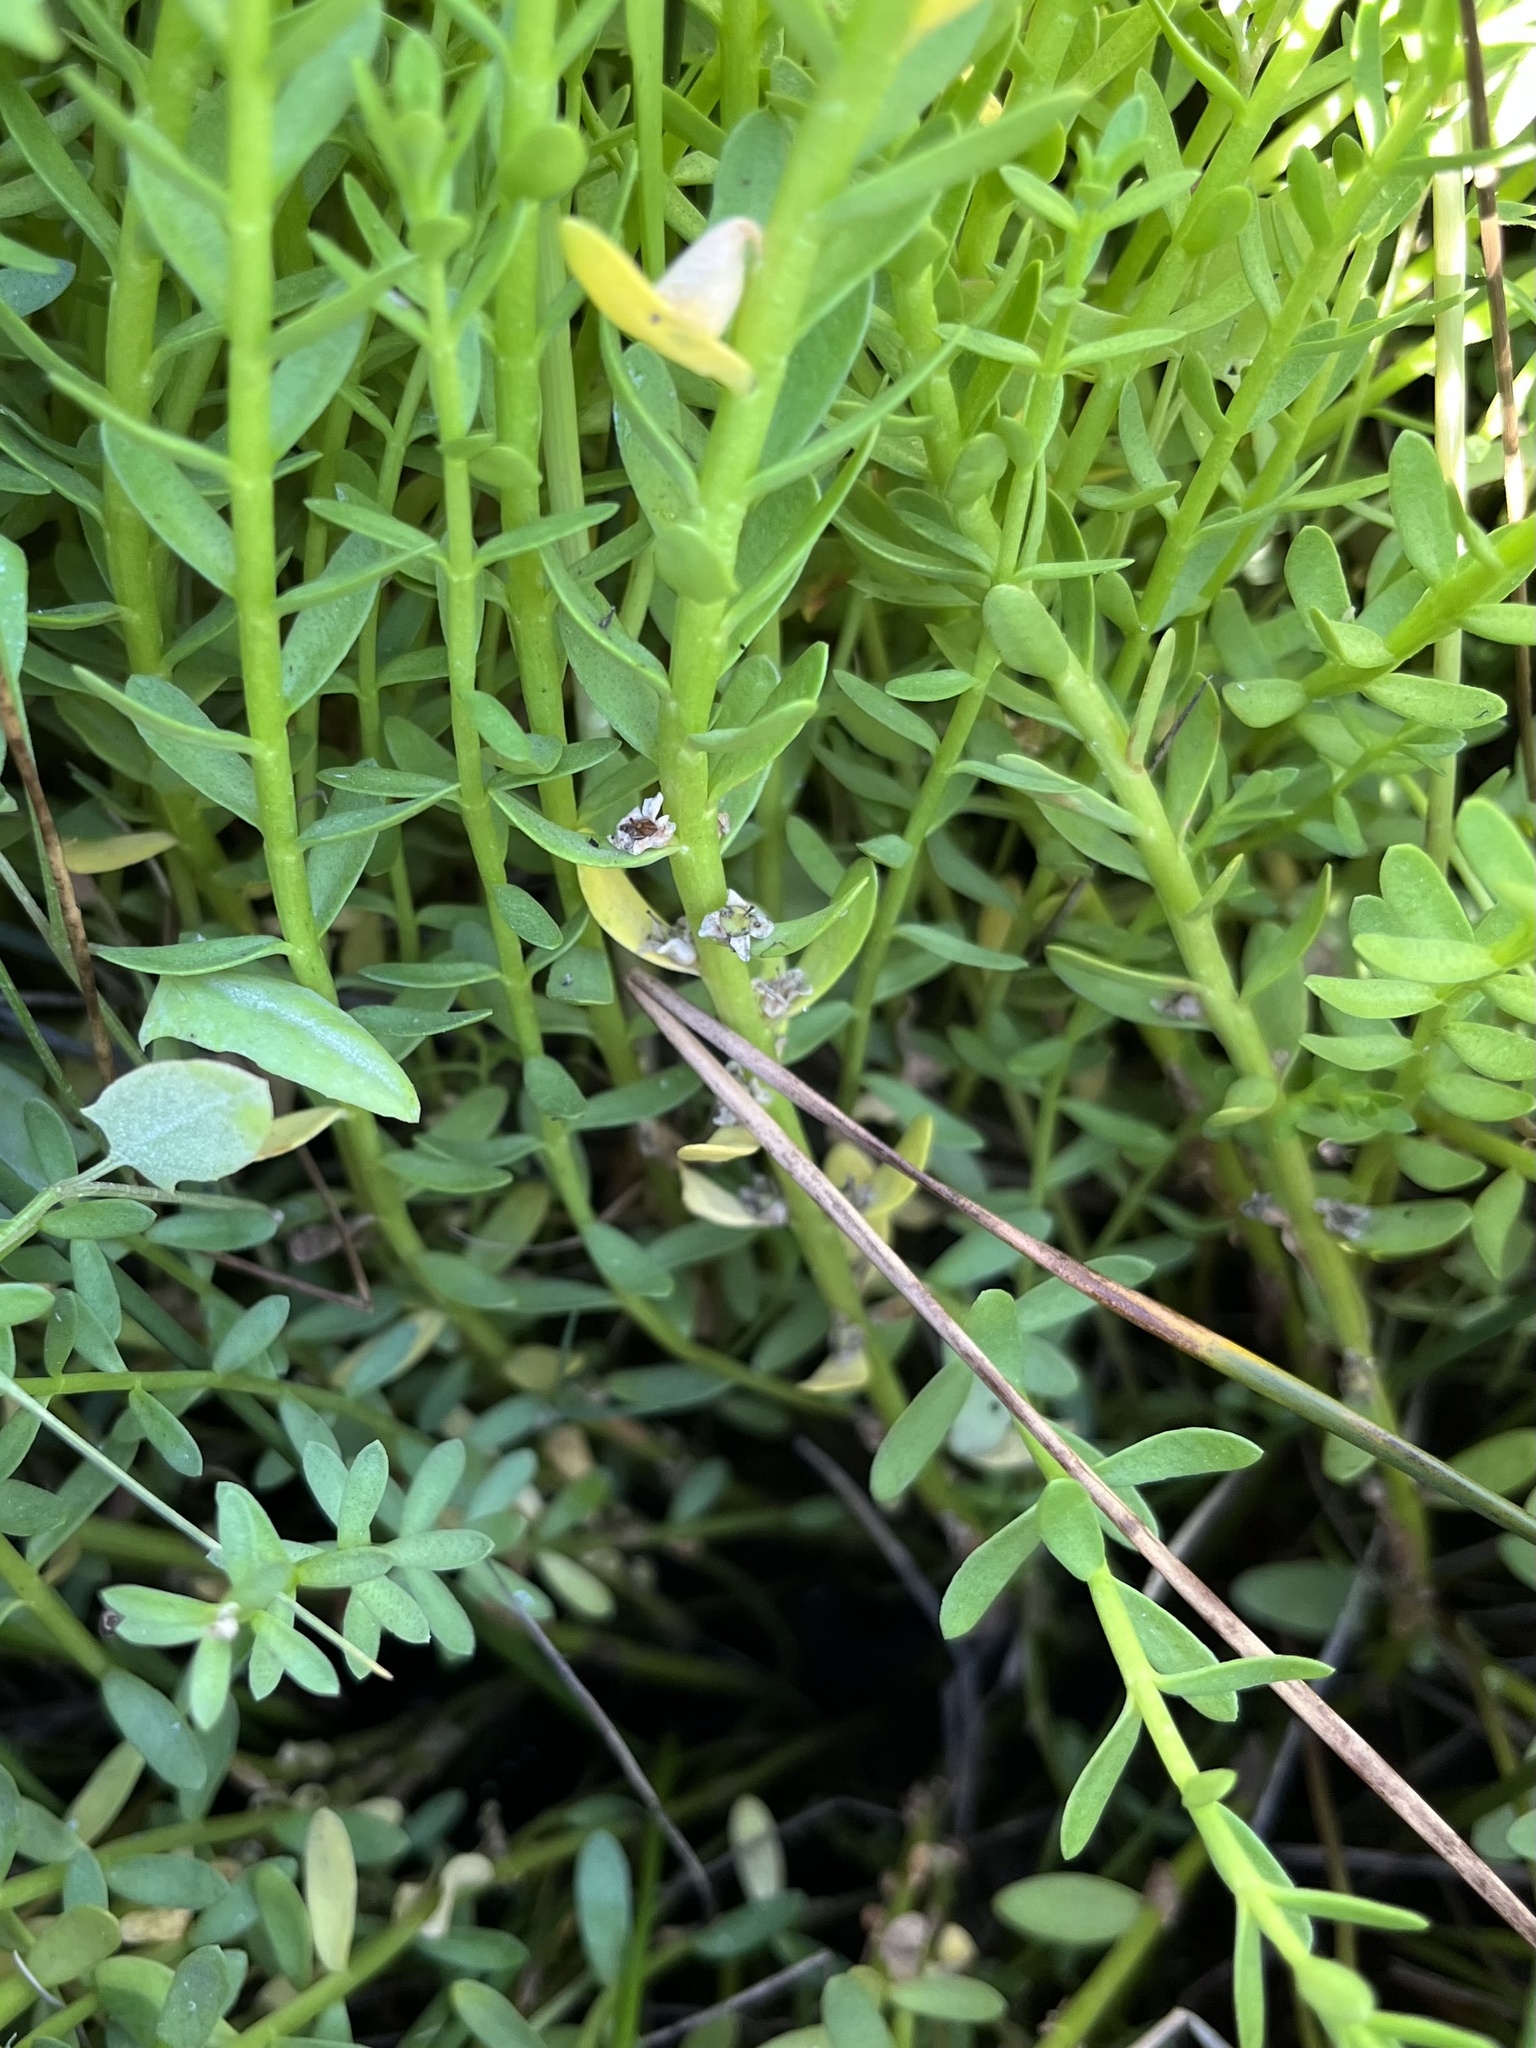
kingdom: Plantae
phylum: Tracheophyta
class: Magnoliopsida
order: Ericales
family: Primulaceae
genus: Lysimachia
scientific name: Lysimachia maritima
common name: Sea milkwort
